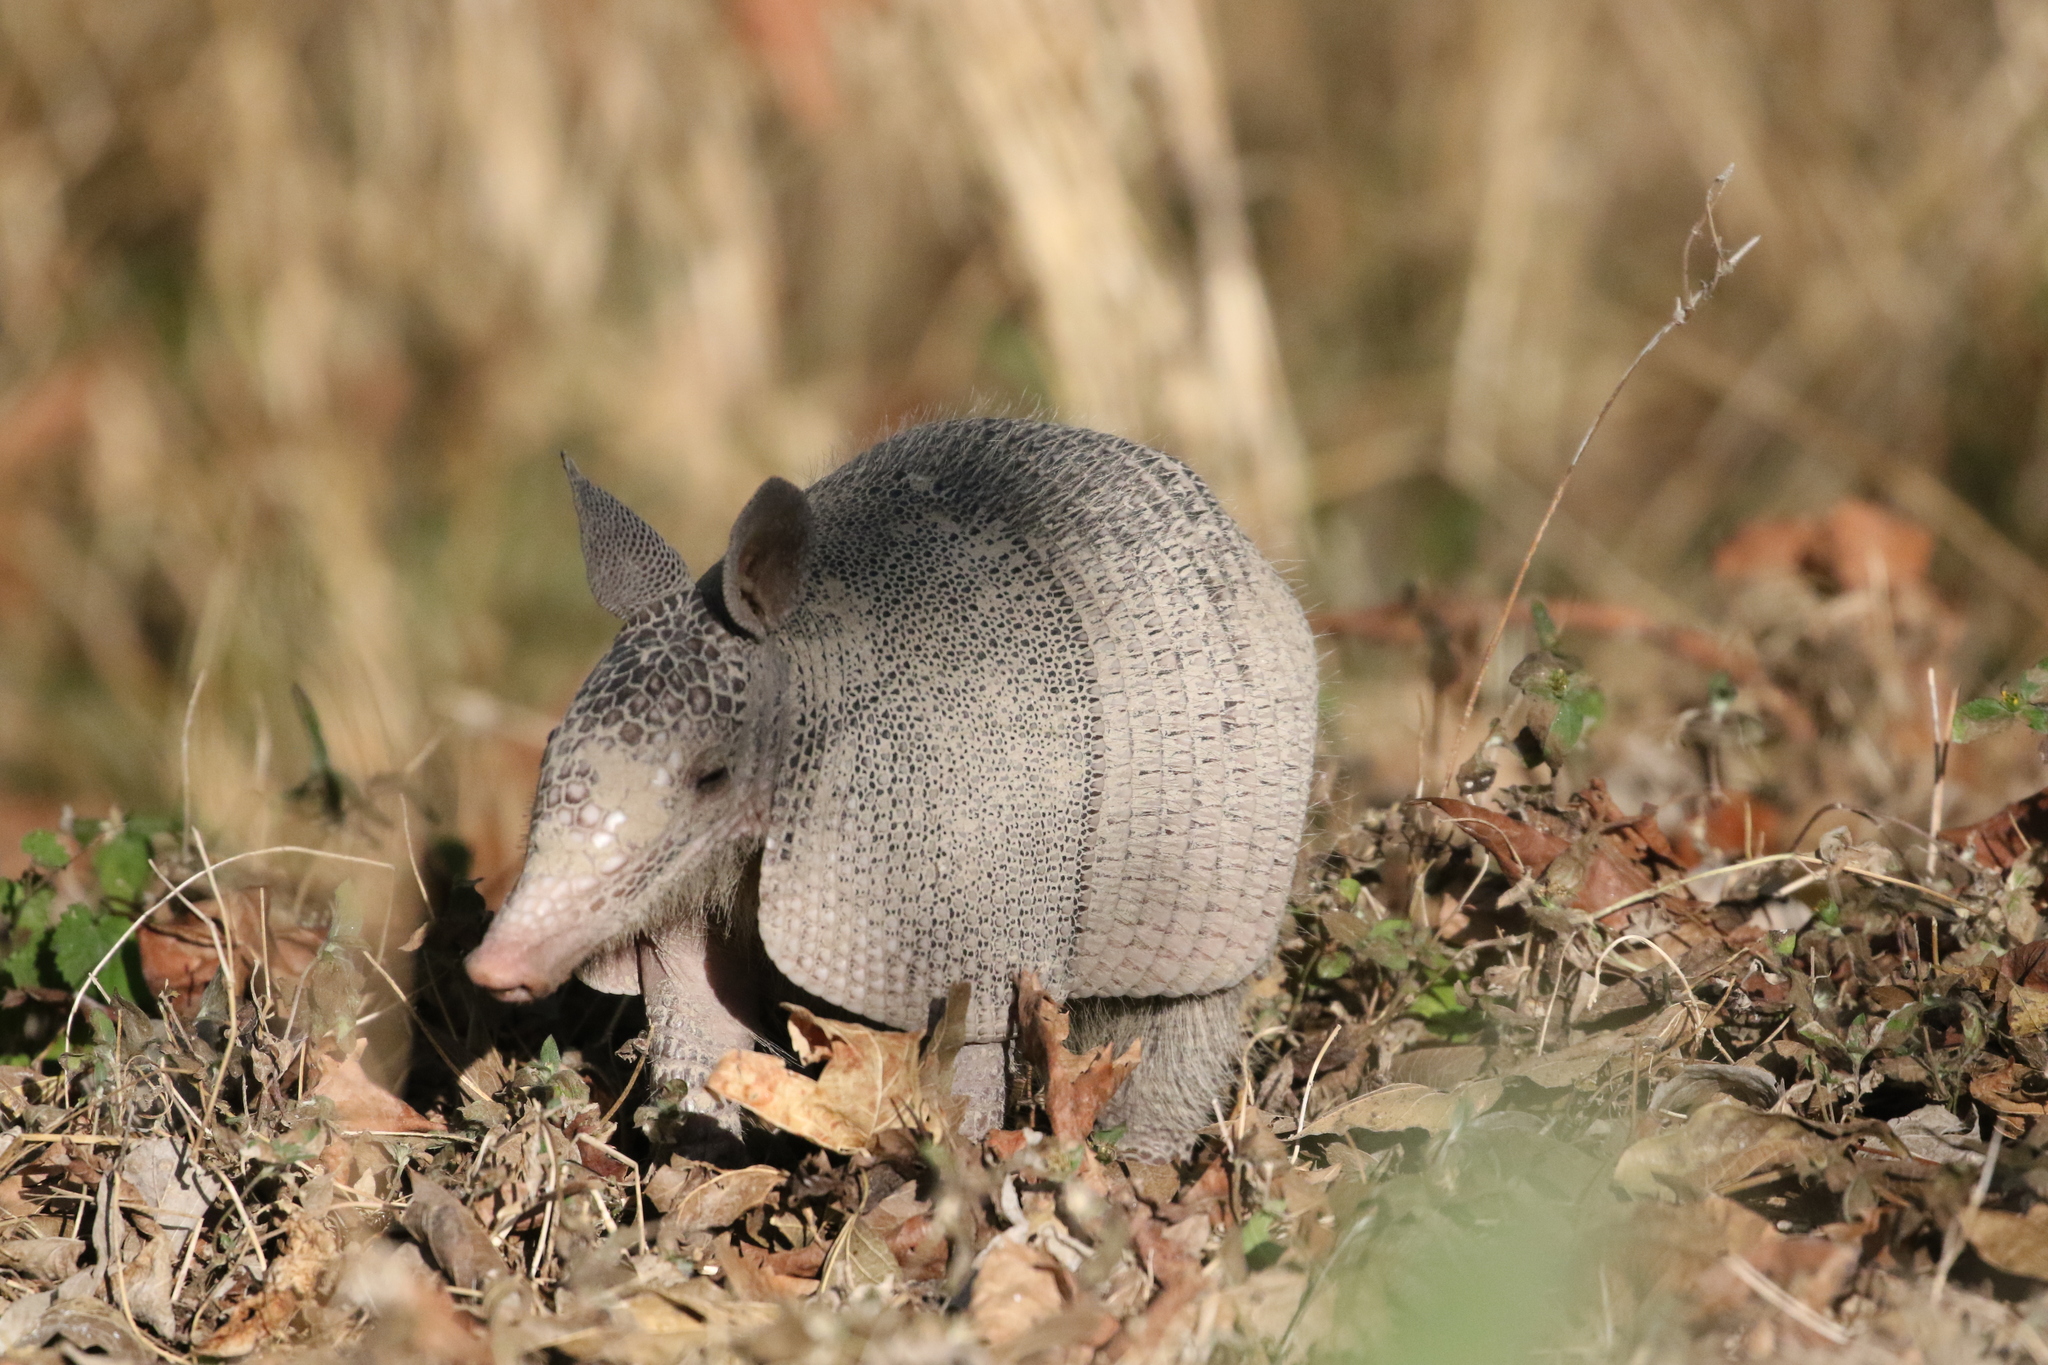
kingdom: Animalia
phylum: Chordata
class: Mammalia
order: Cingulata
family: Dasypodidae
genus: Dasypus
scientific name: Dasypus novemcinctus
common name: Nine-banded armadillo
